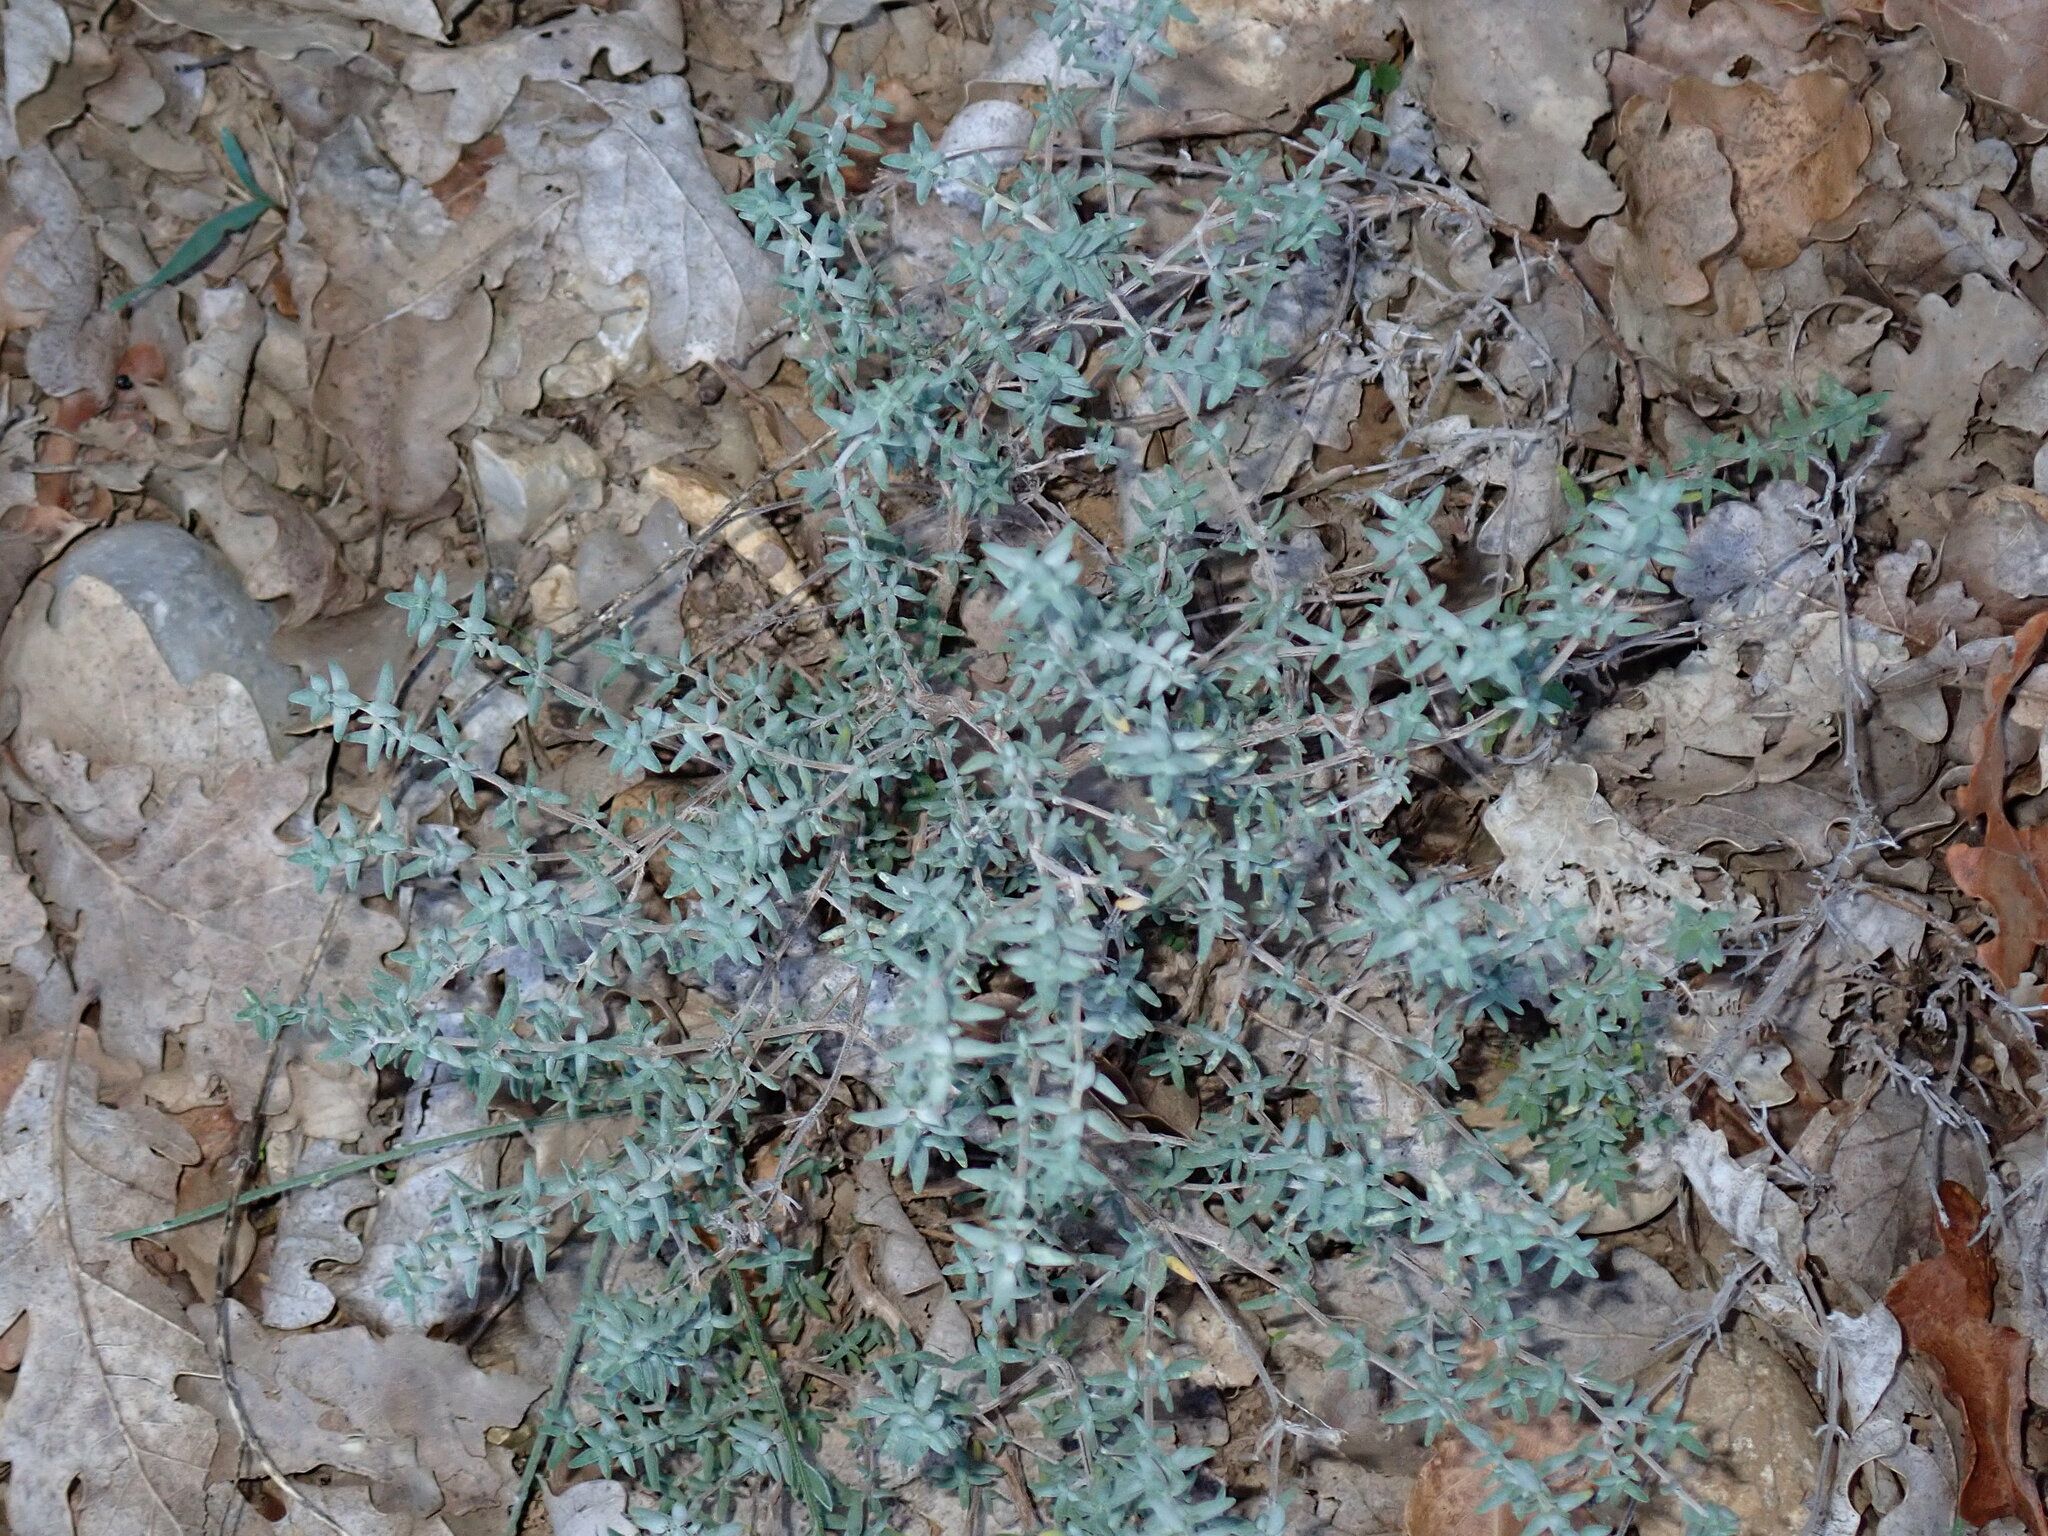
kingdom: Plantae
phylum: Tracheophyta
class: Magnoliopsida
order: Lamiales
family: Lamiaceae
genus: Thymus
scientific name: Thymus vulgaris
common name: Garden thyme
